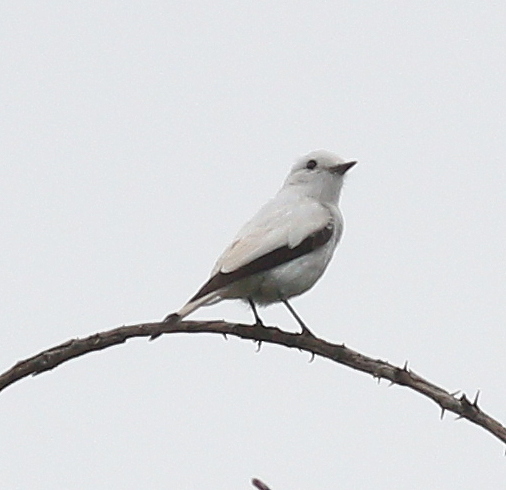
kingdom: Animalia
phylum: Chordata
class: Aves
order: Passeriformes
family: Tyrannidae
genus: Xolmis
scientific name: Xolmis irupero
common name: White monjita
